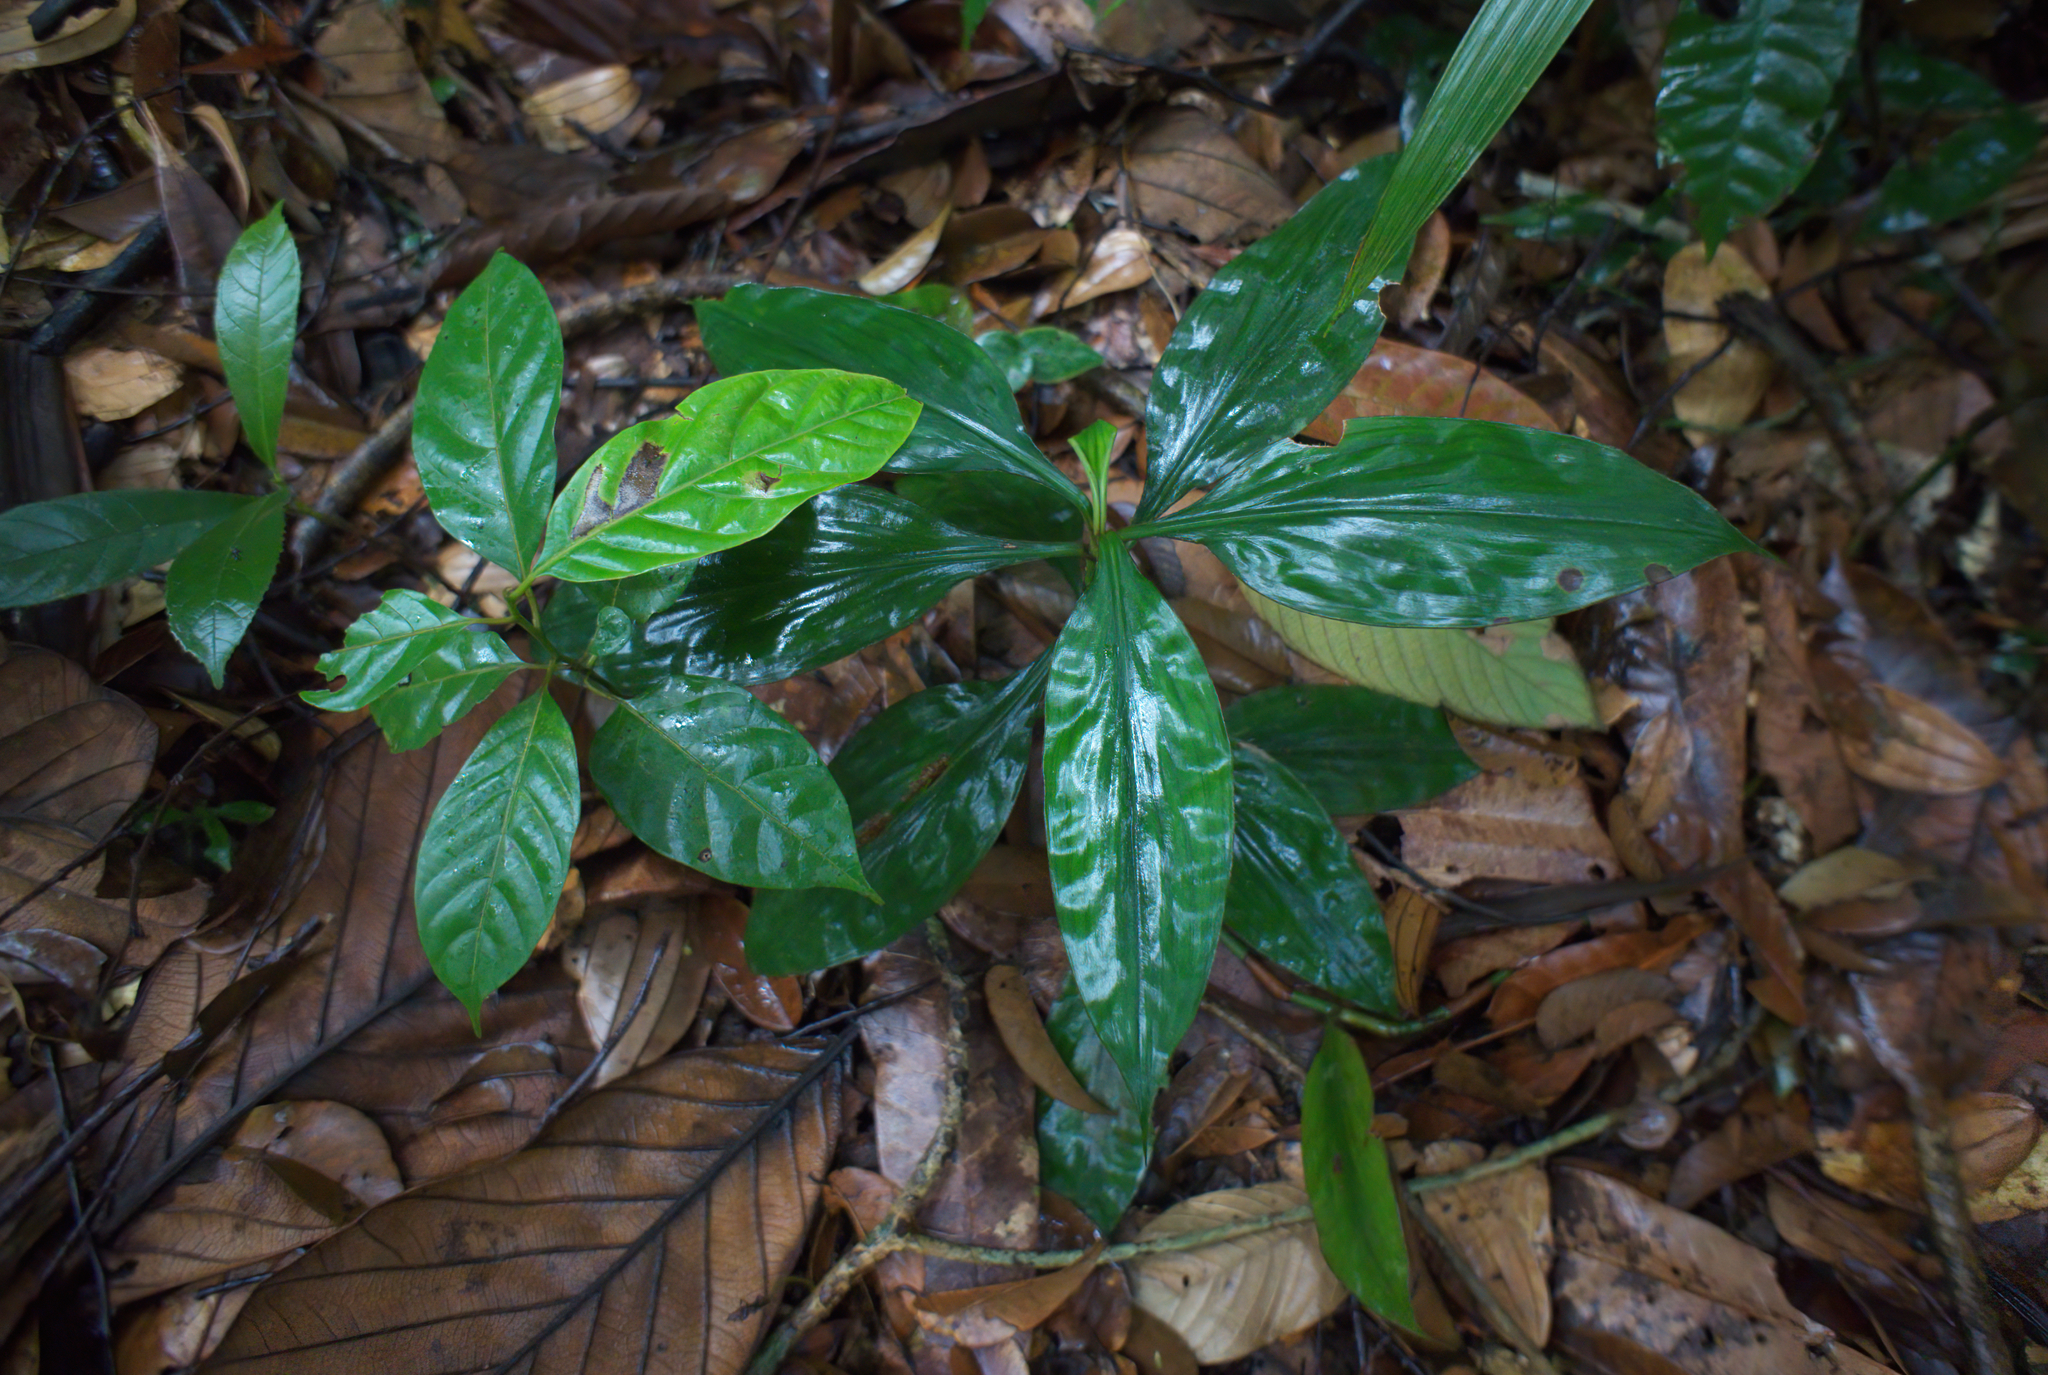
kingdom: Plantae
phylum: Tracheophyta
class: Liliopsida
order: Commelinales
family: Commelinaceae
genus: Amischotolype
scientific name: Amischotolype gracilis
